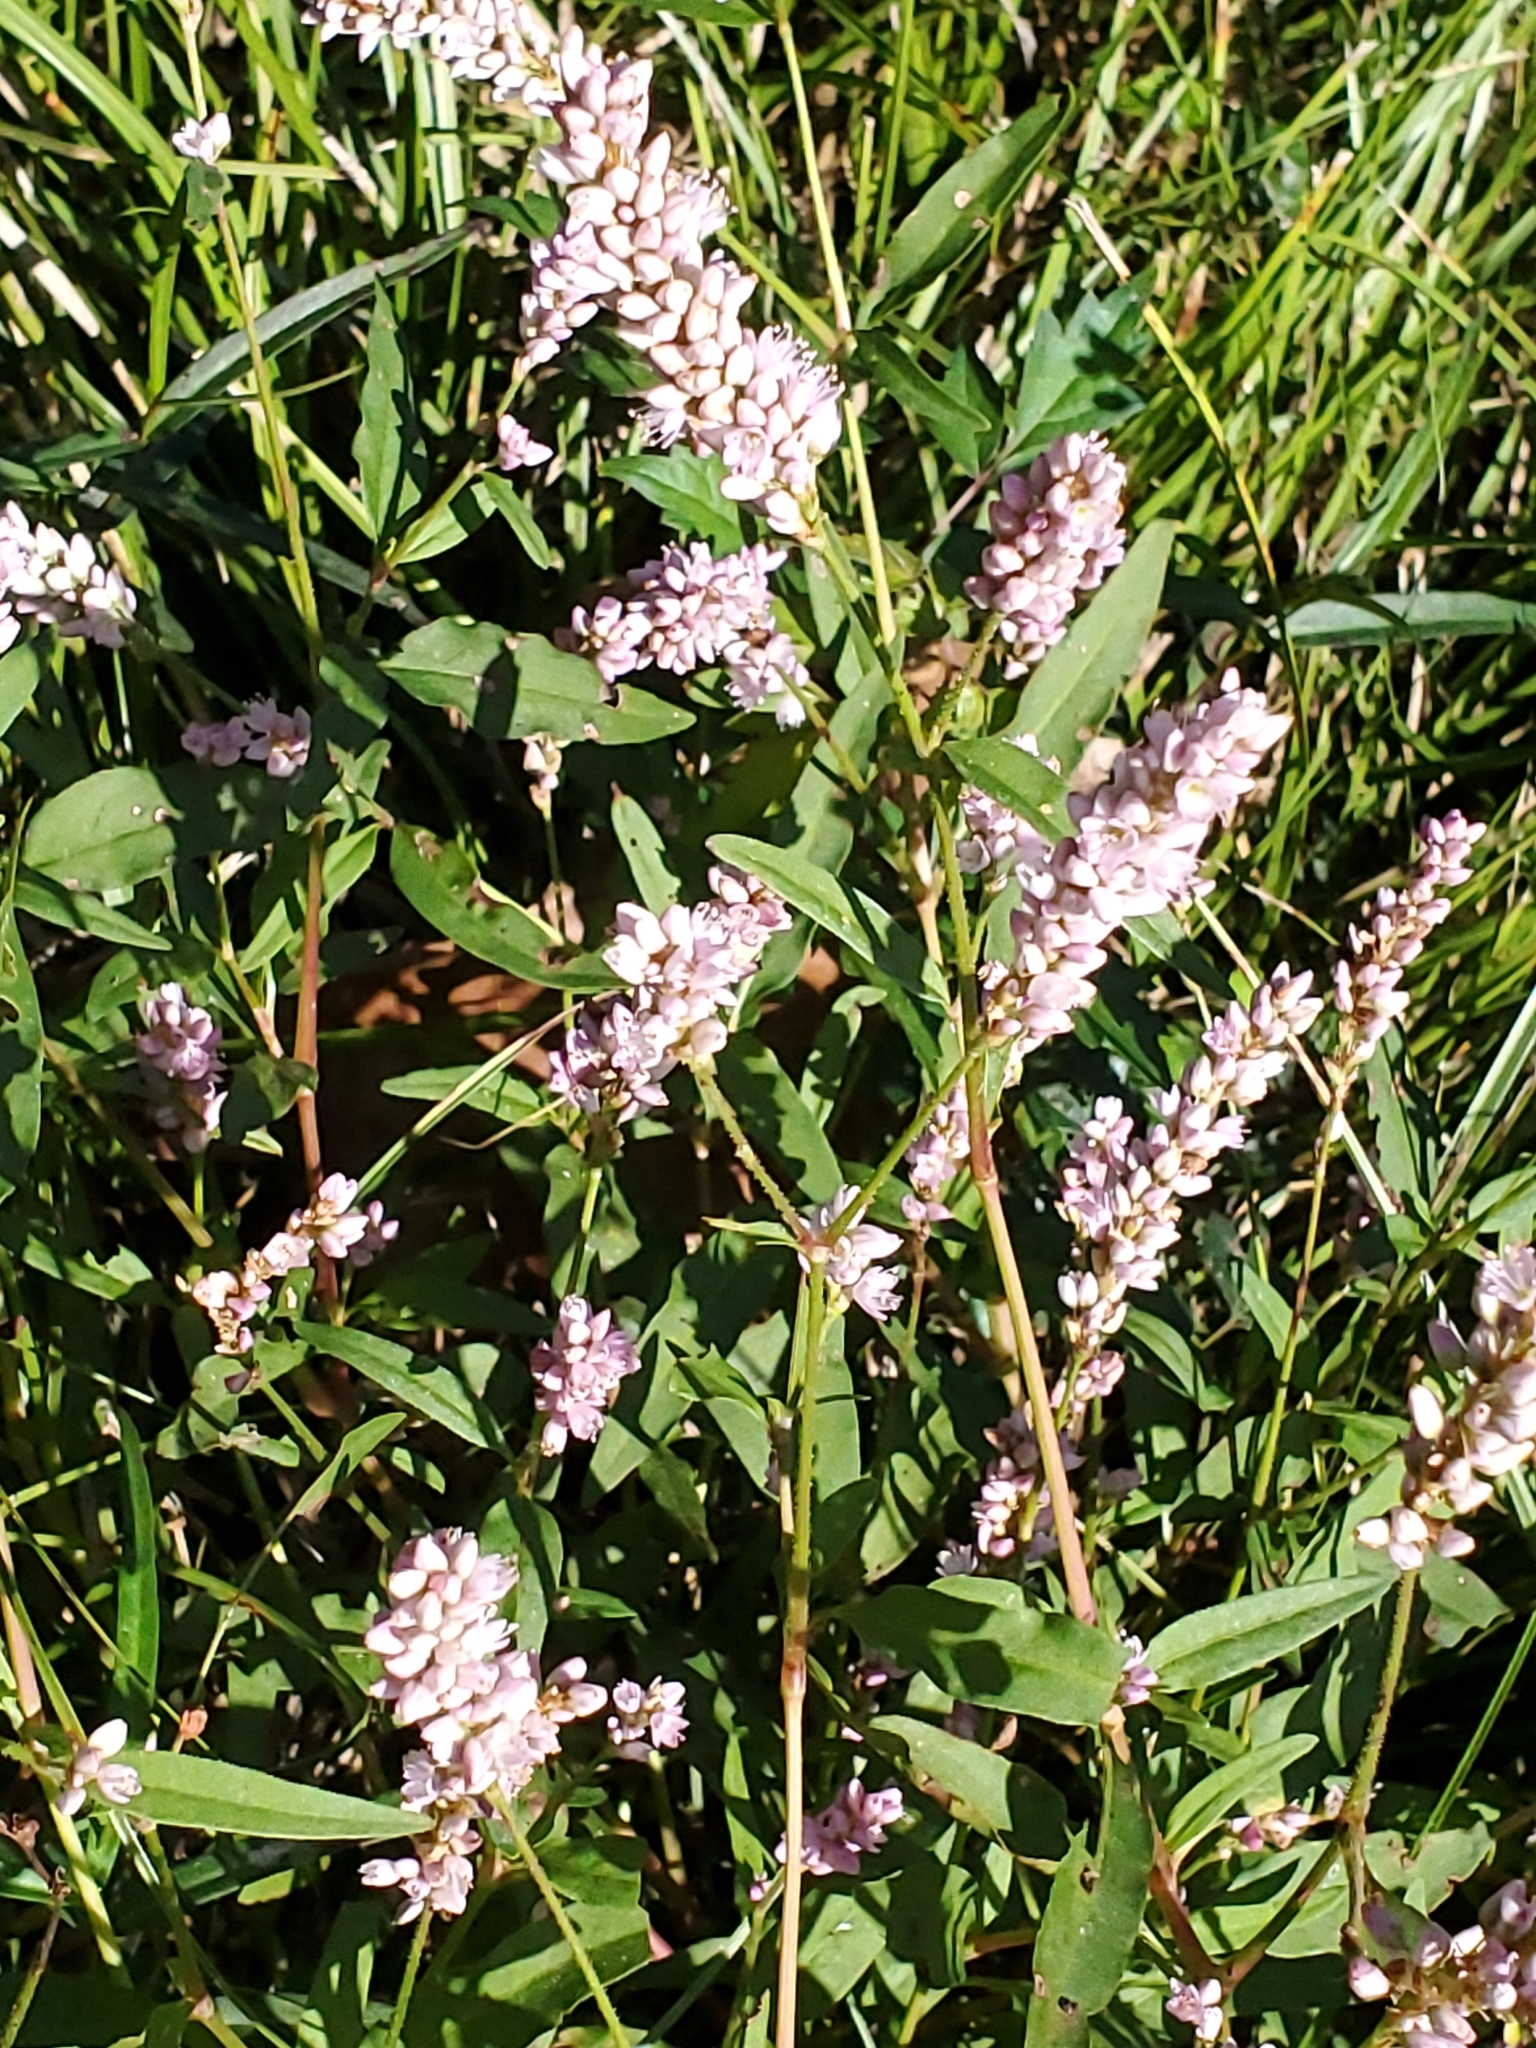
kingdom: Plantae
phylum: Tracheophyta
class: Magnoliopsida
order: Caryophyllales
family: Polygonaceae
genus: Persicaria
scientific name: Persicaria bicornis
